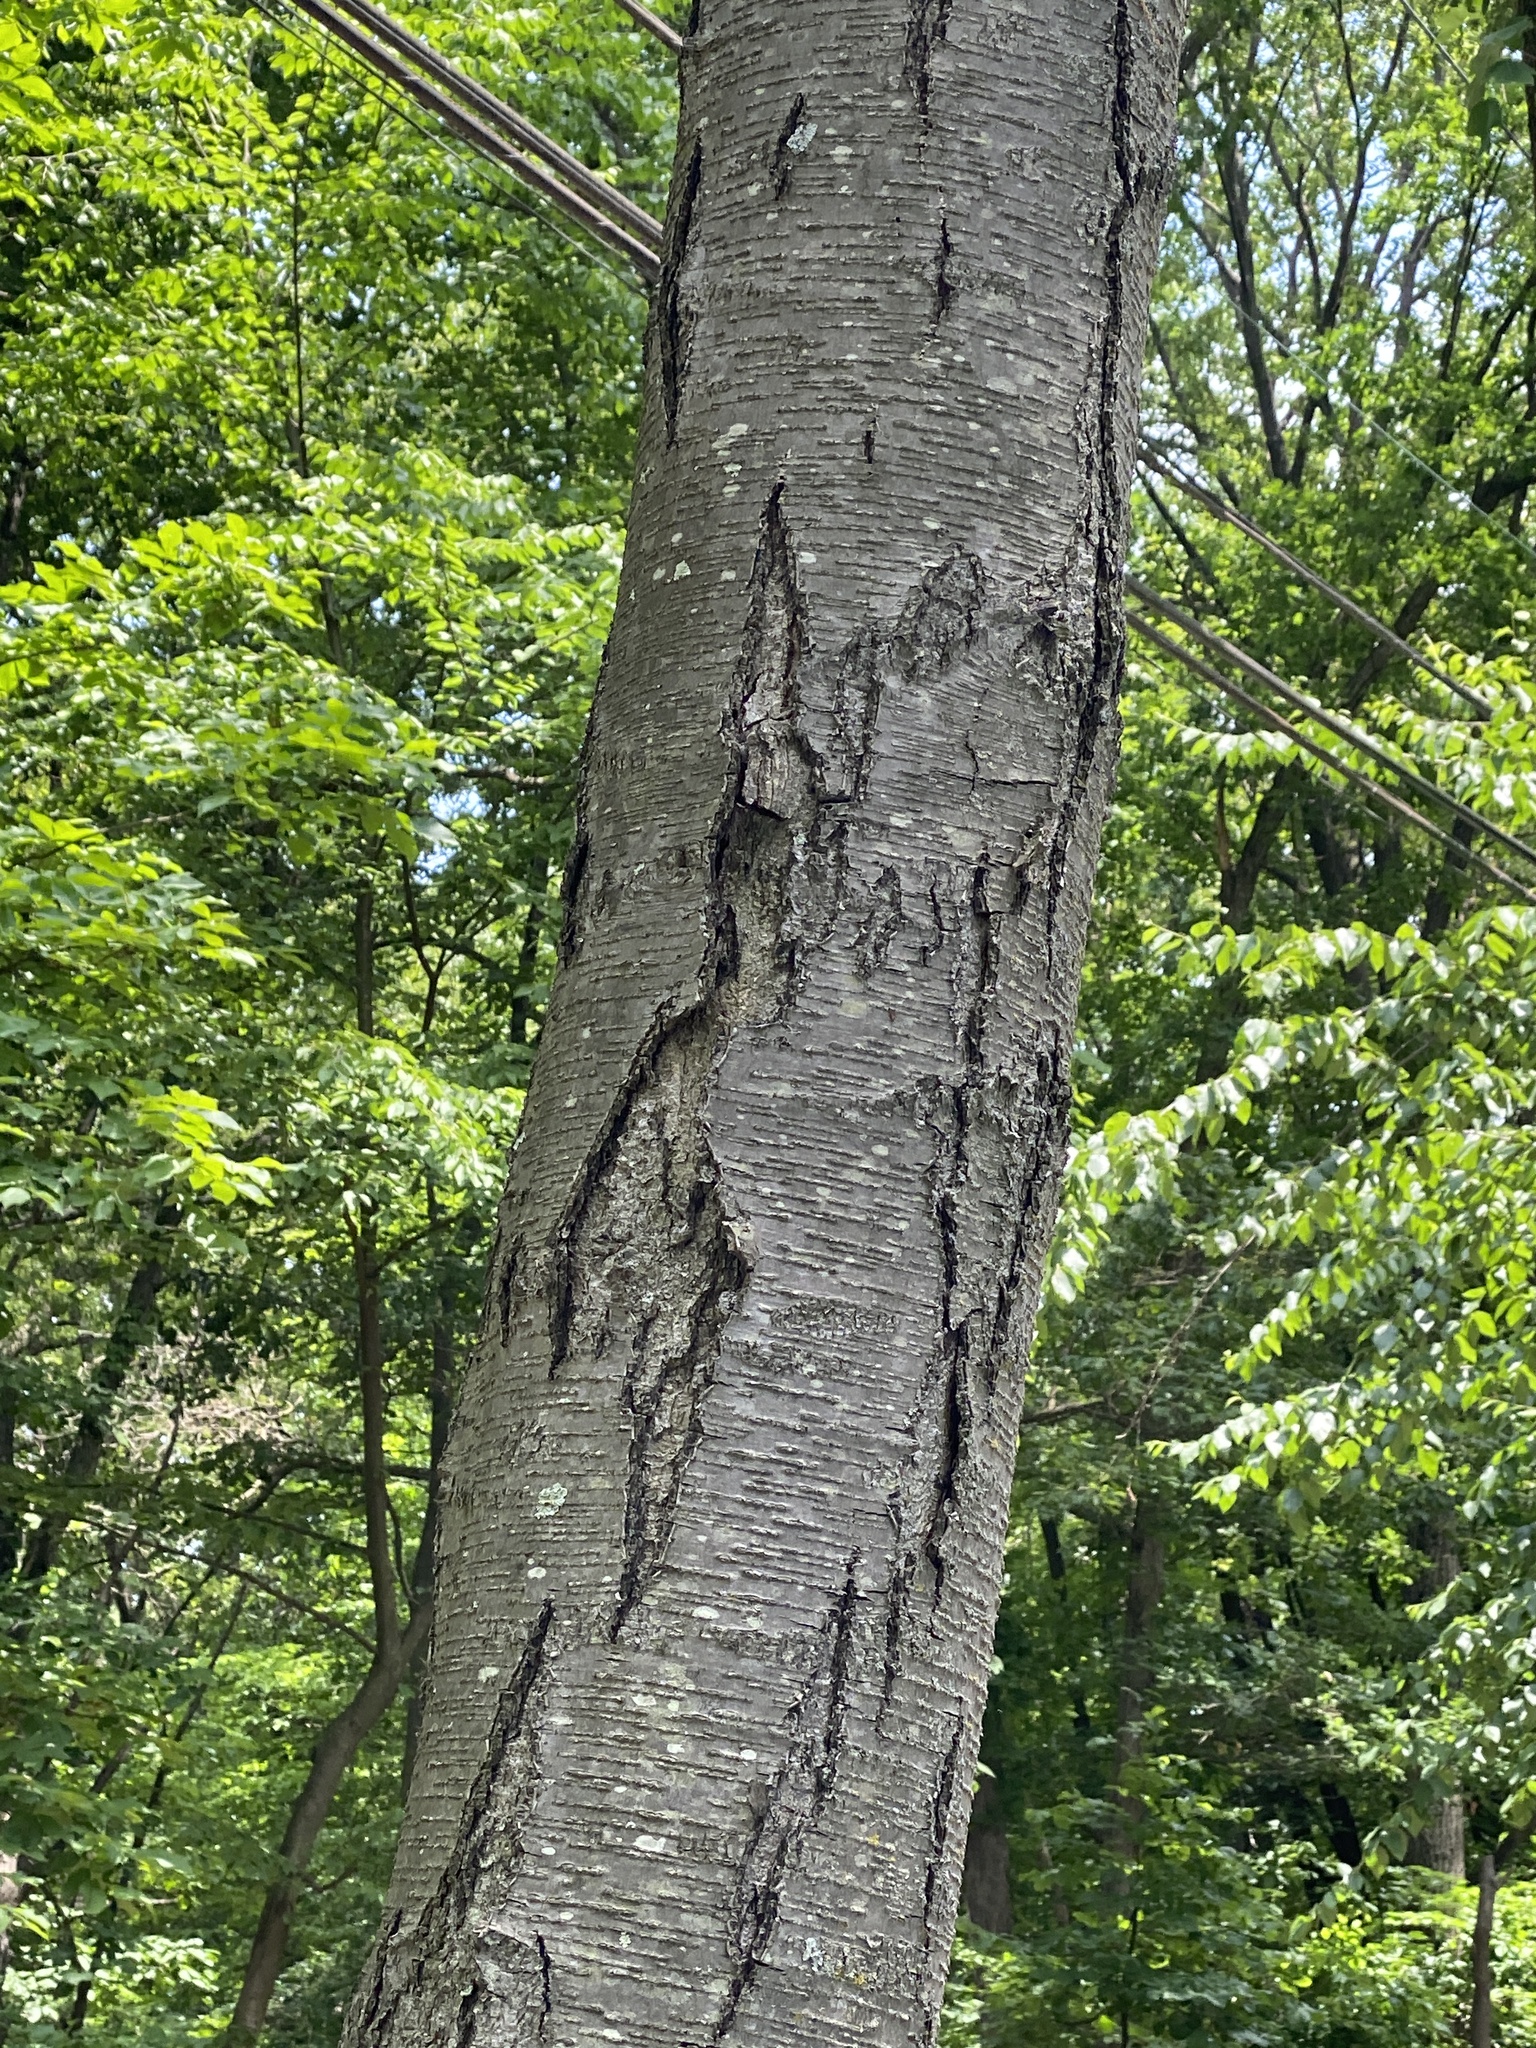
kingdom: Plantae
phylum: Tracheophyta
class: Magnoliopsida
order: Fagales
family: Betulaceae
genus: Betula
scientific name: Betula lenta
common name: Black birch
